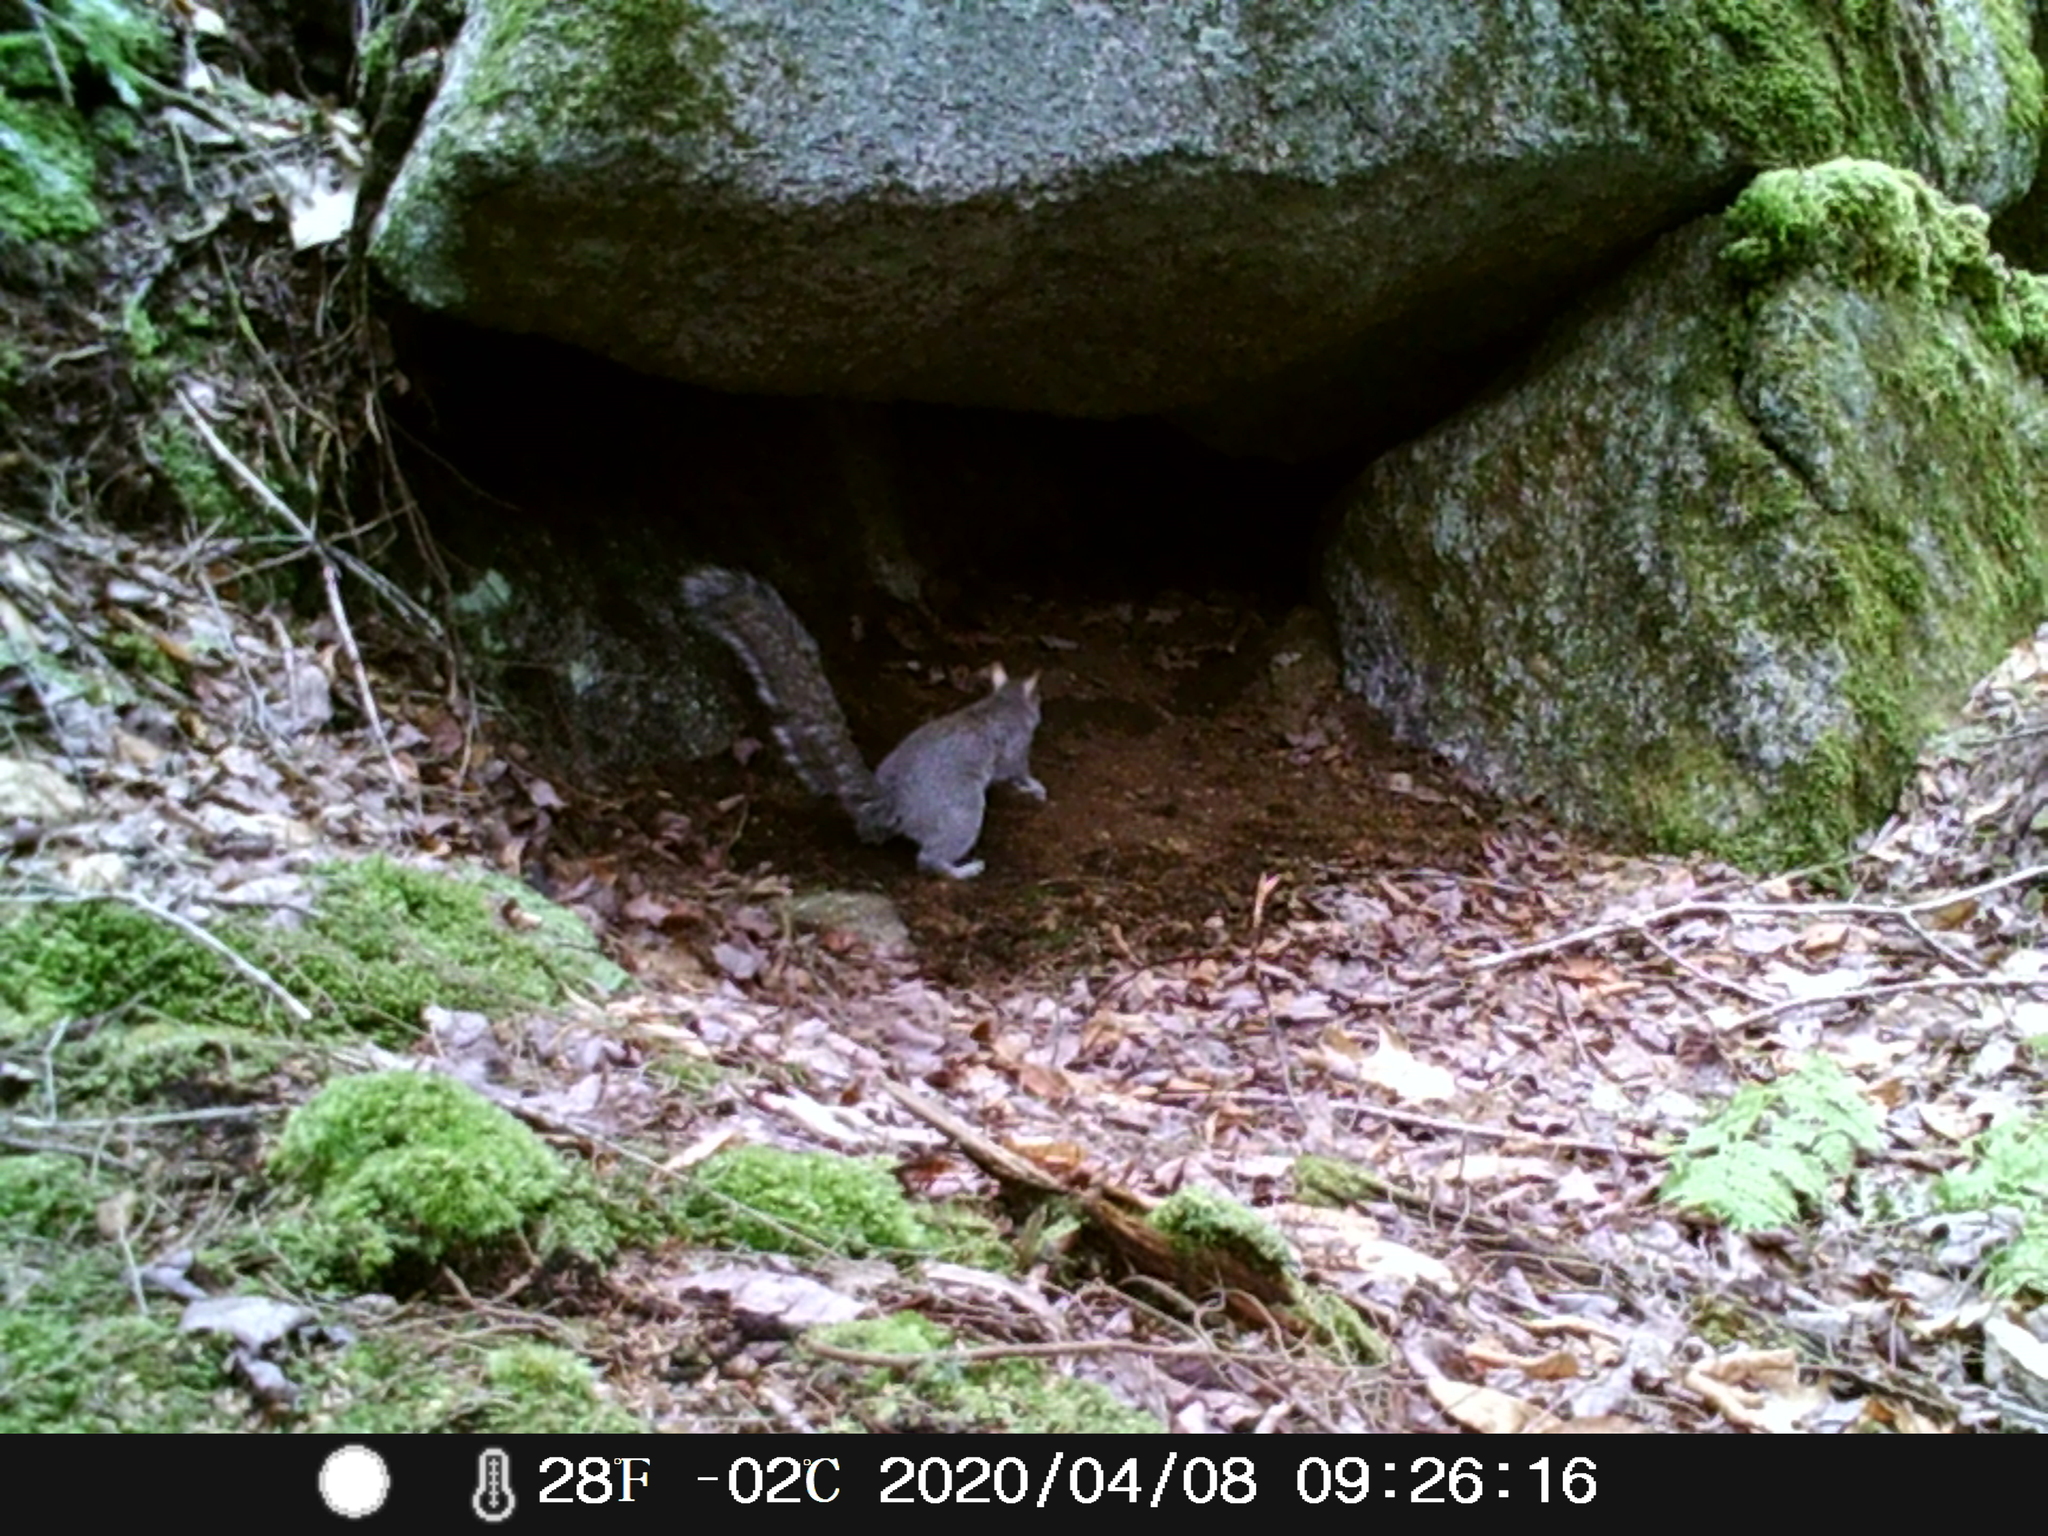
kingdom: Animalia
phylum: Chordata
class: Mammalia
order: Rodentia
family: Sciuridae
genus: Sciurus
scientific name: Sciurus carolinensis
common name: Eastern gray squirrel
